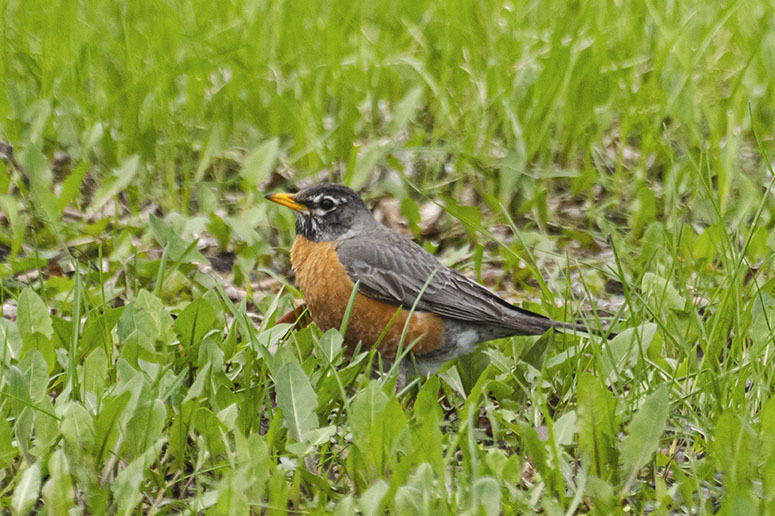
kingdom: Animalia
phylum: Chordata
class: Aves
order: Passeriformes
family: Turdidae
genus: Turdus
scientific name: Turdus migratorius
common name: American robin
